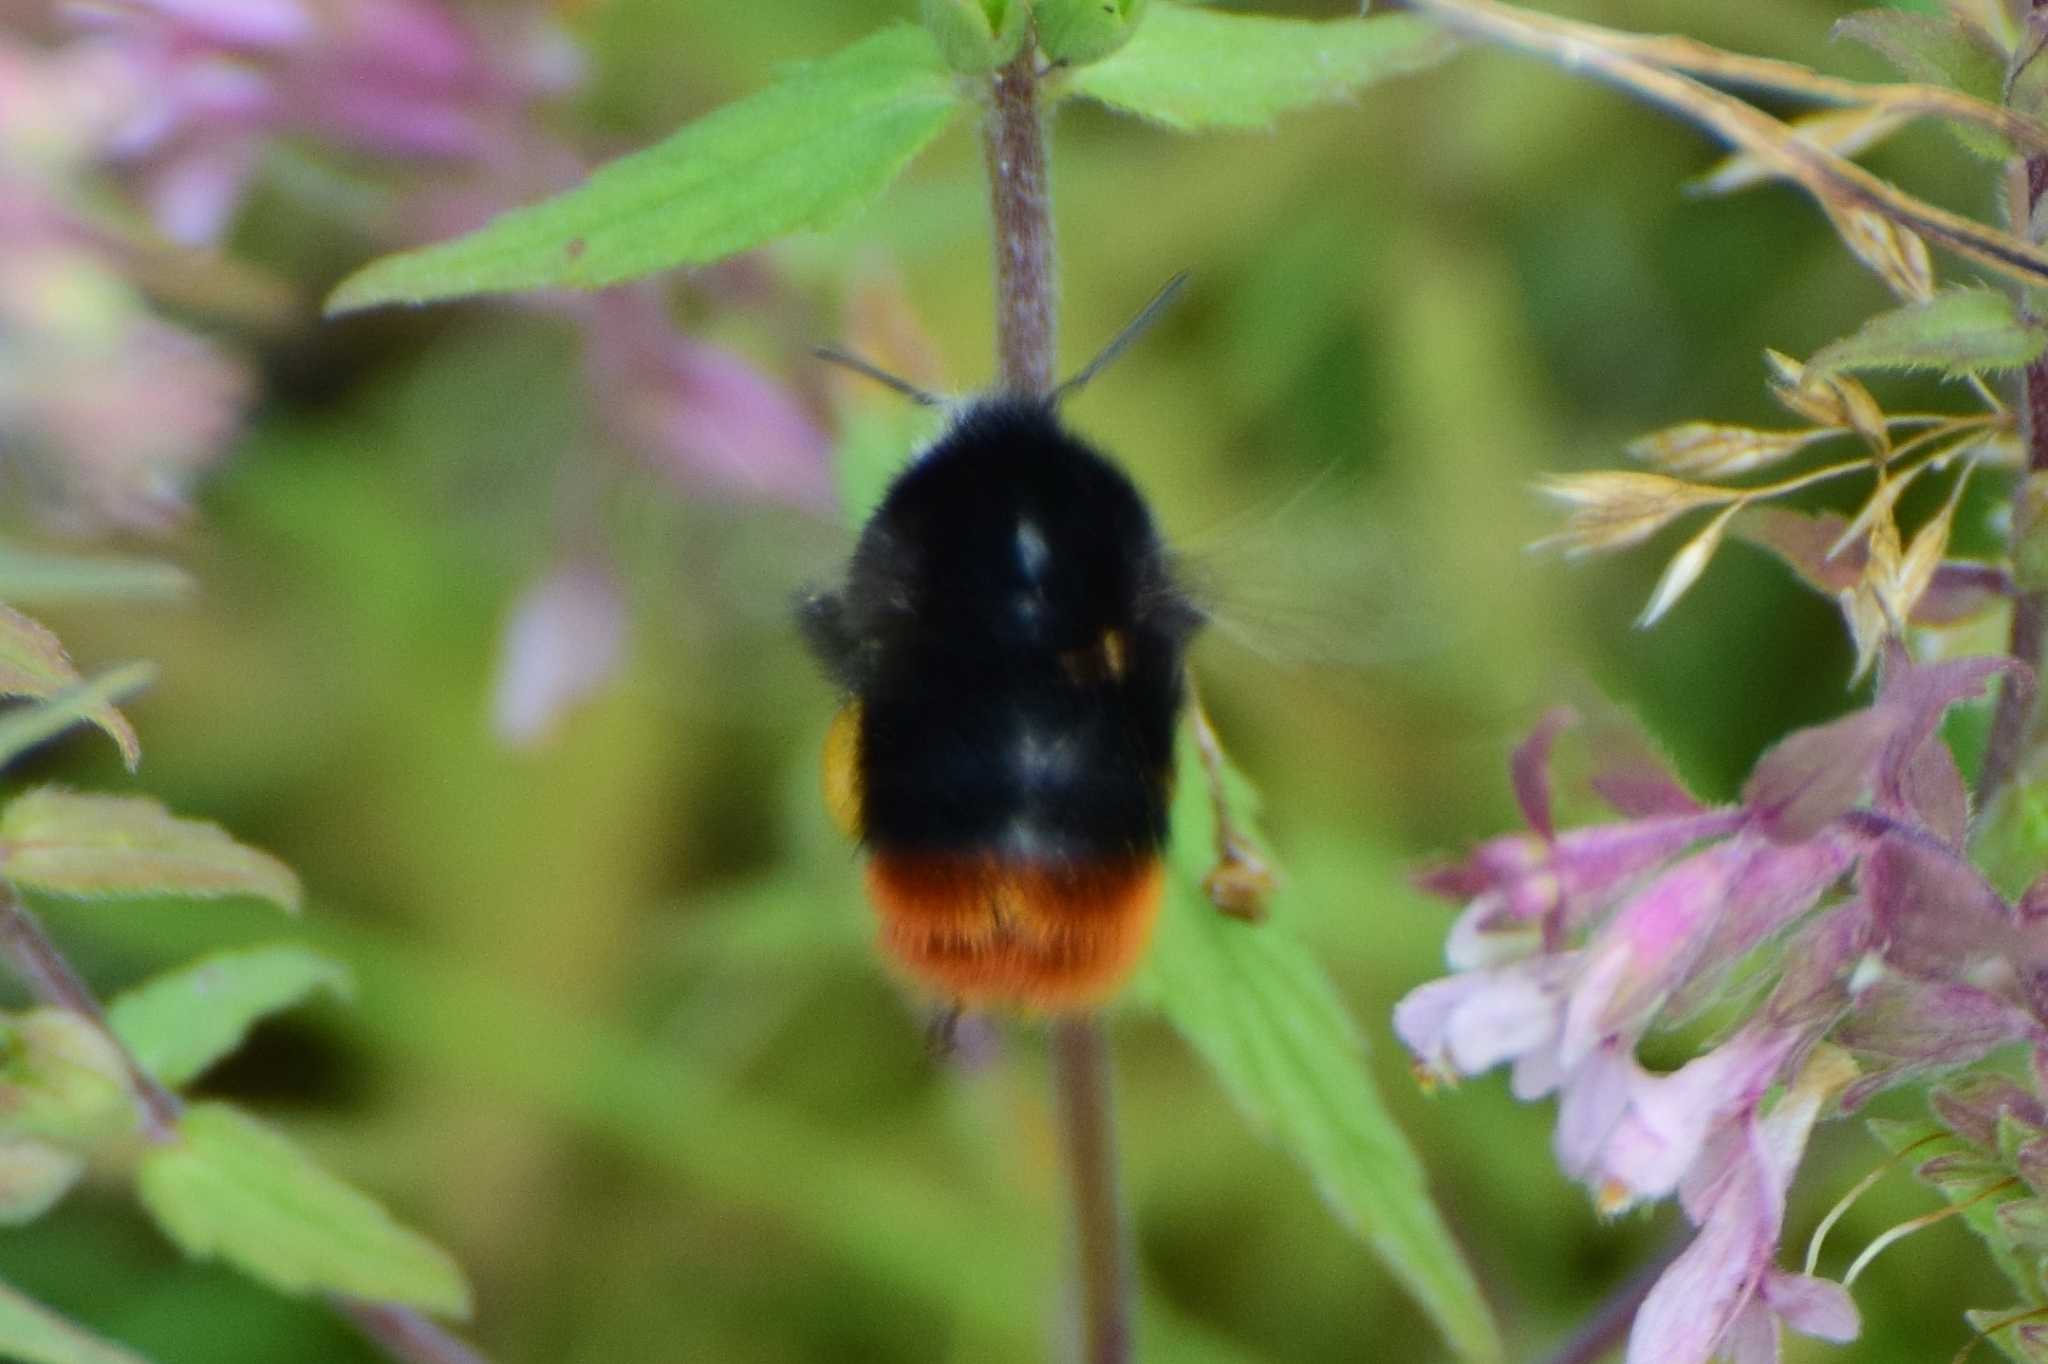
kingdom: Animalia
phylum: Arthropoda
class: Insecta
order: Hymenoptera
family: Apidae
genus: Bombus
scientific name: Bombus
